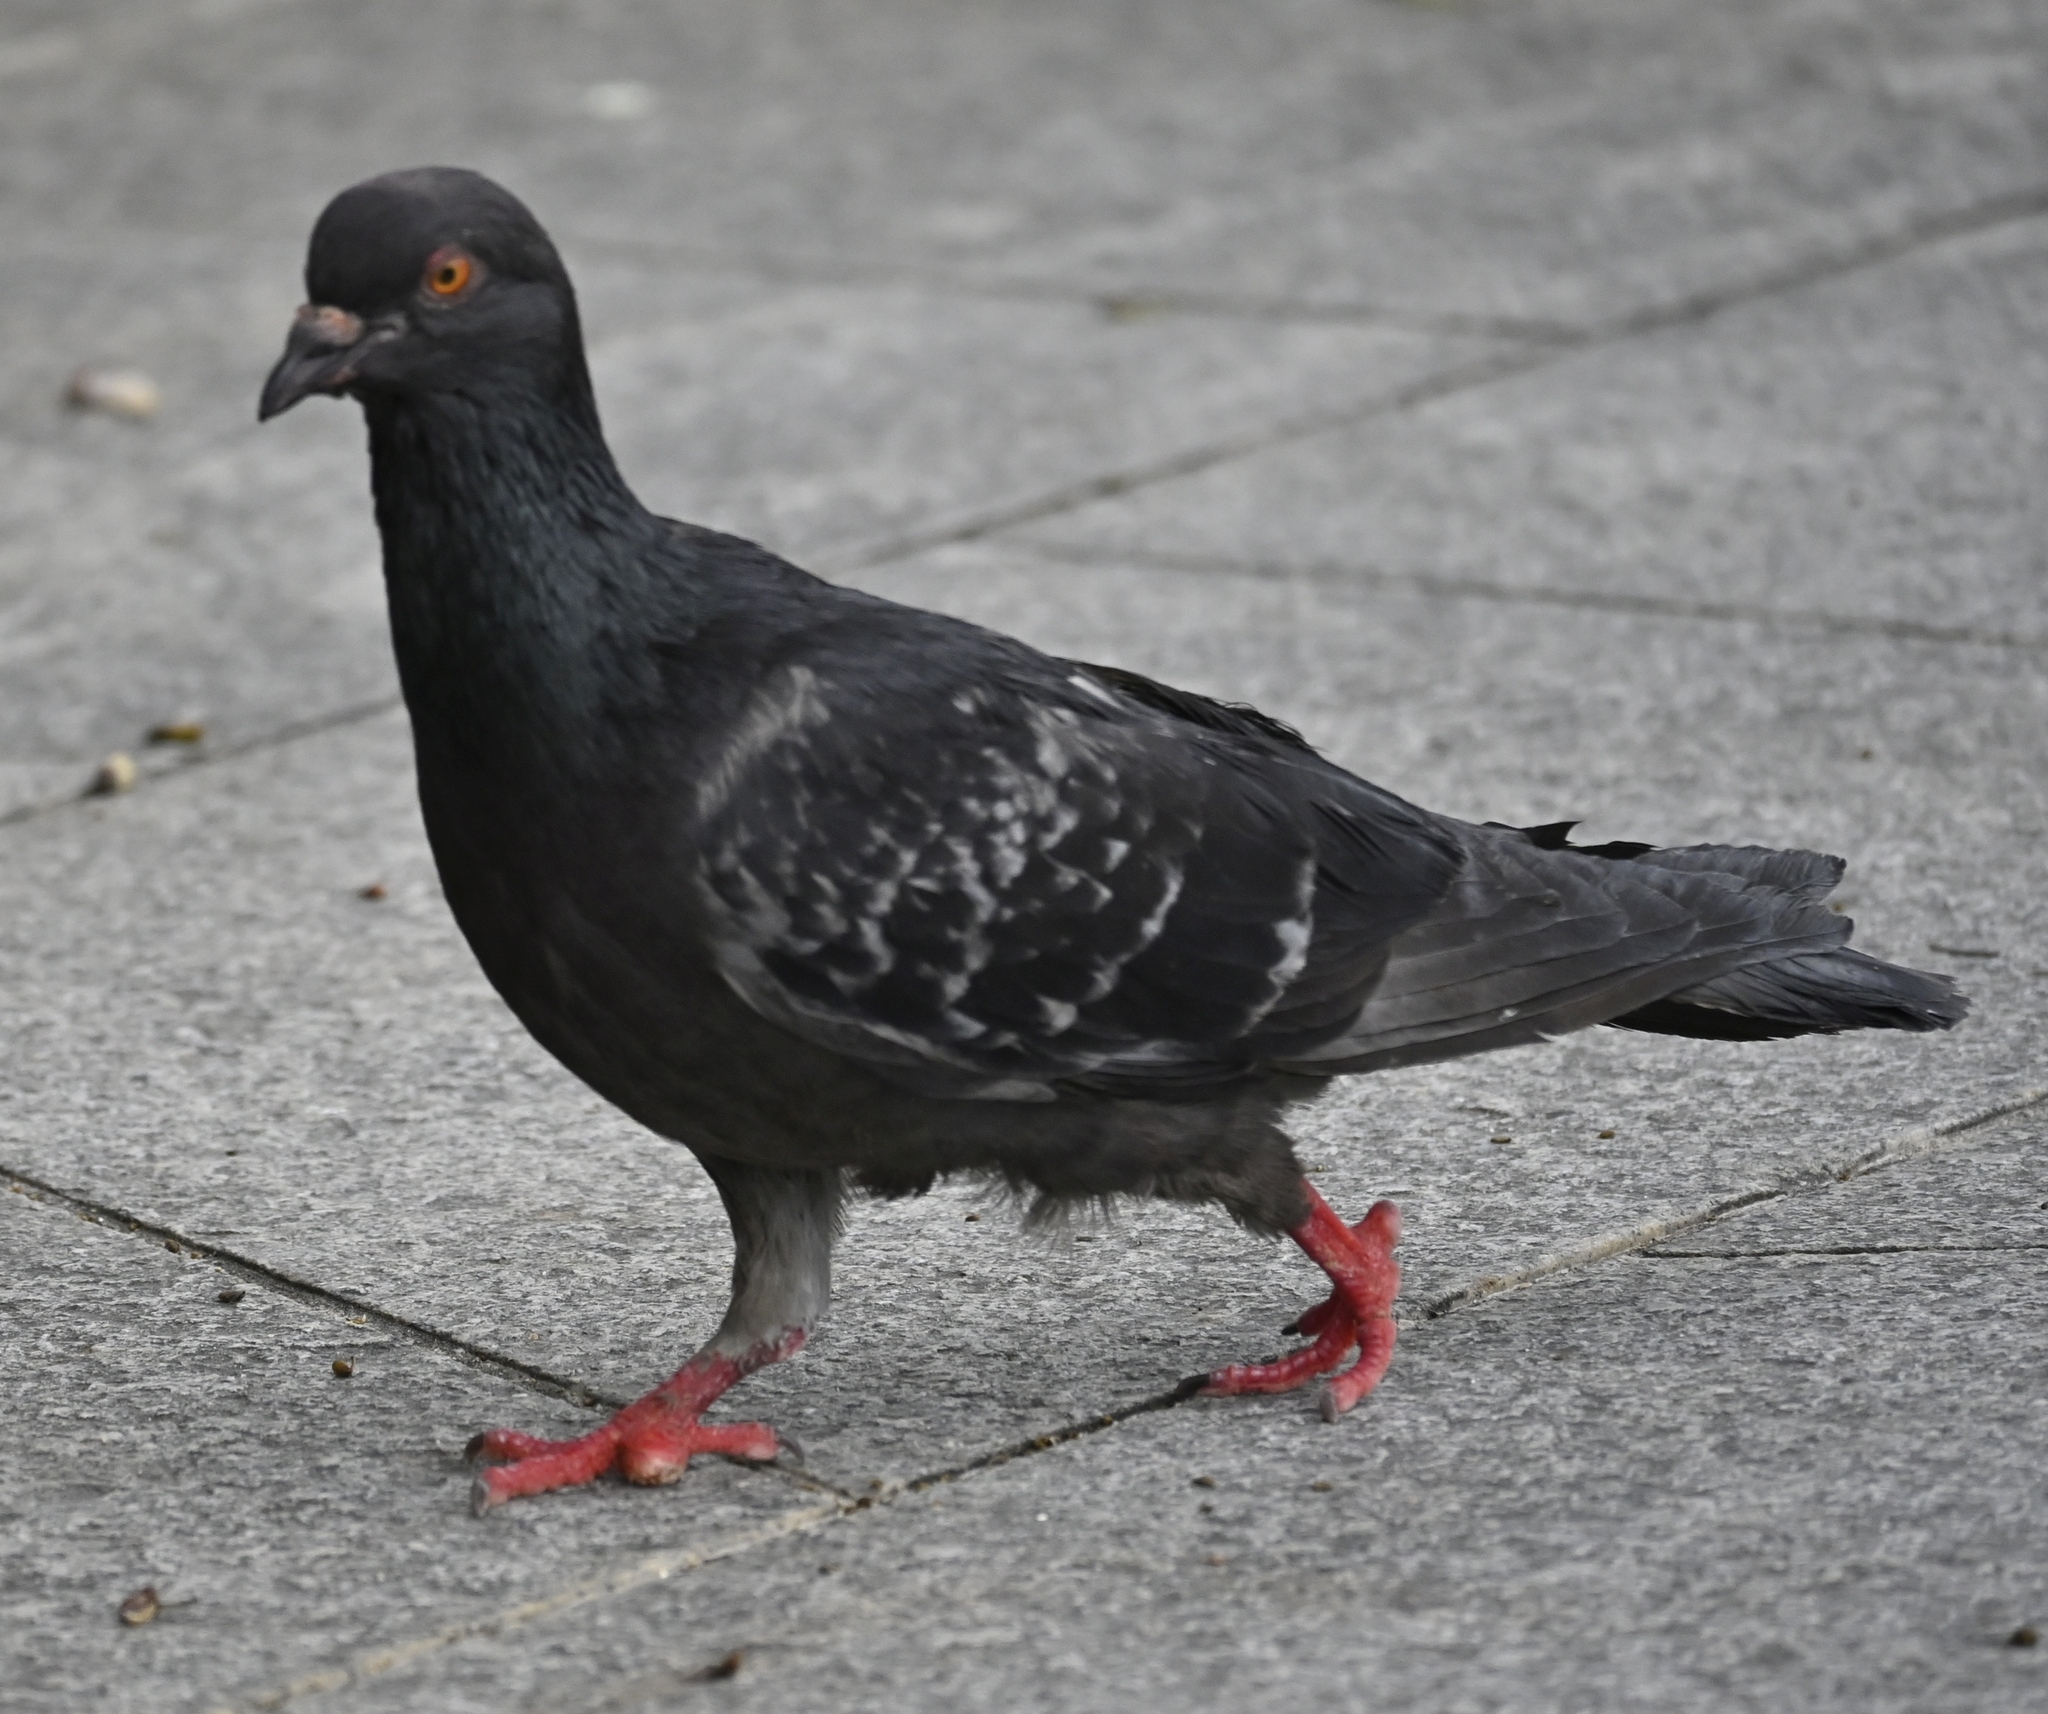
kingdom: Animalia
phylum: Chordata
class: Aves
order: Columbiformes
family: Columbidae
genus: Columba
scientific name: Columba livia
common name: Rock pigeon
